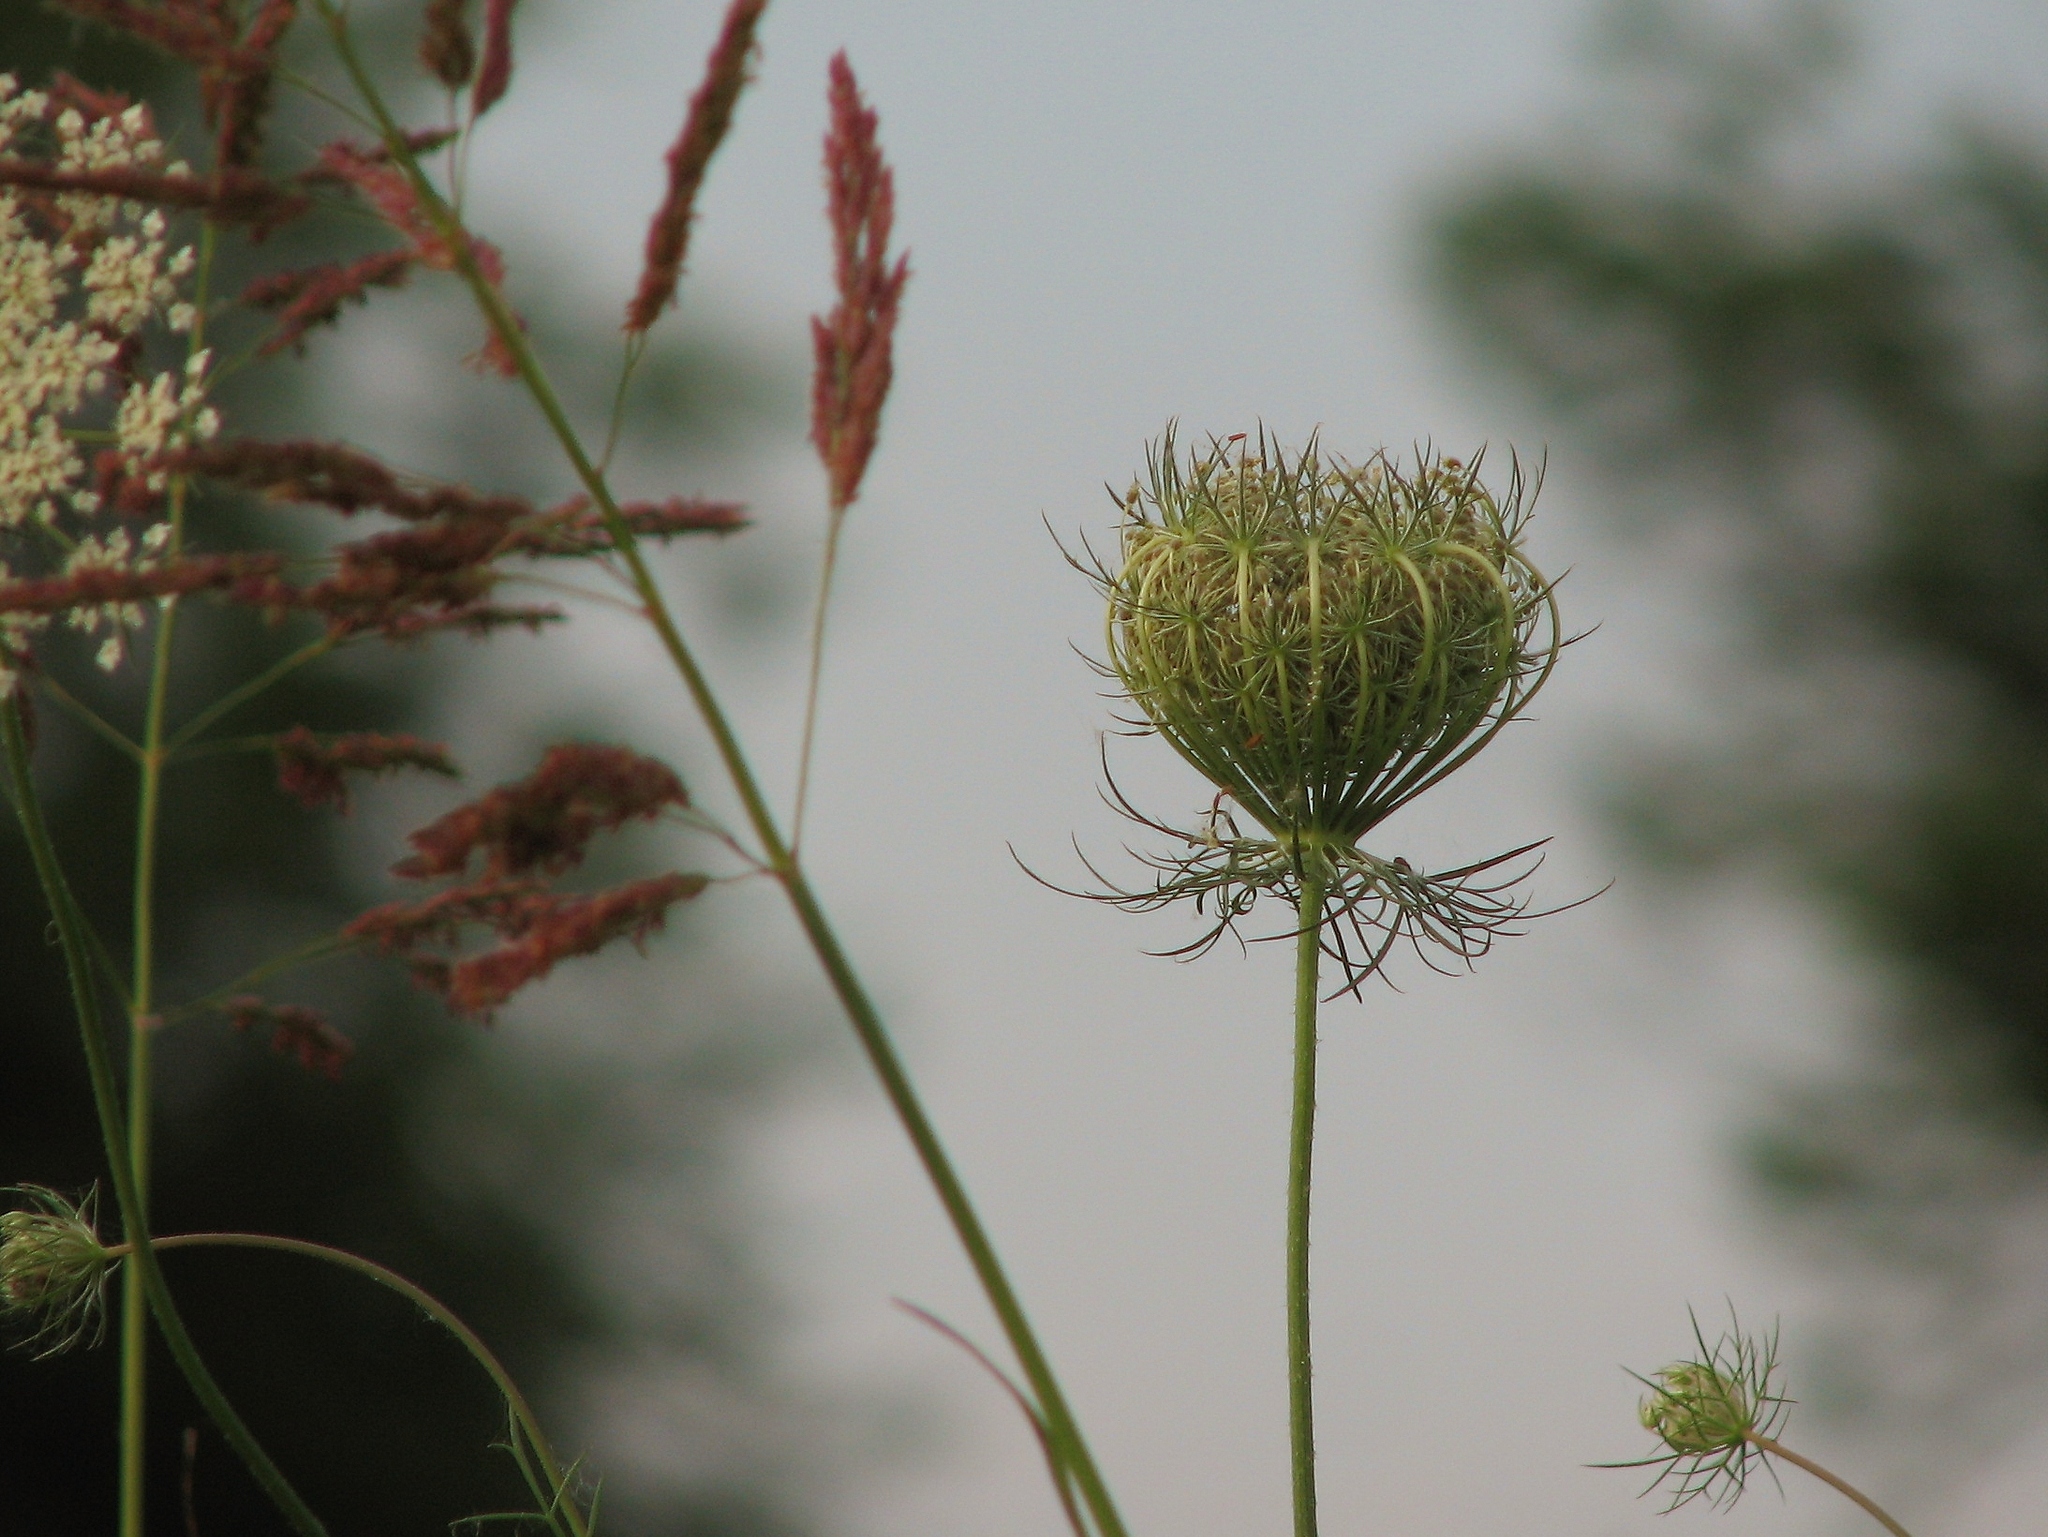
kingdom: Plantae
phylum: Tracheophyta
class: Magnoliopsida
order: Apiales
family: Apiaceae
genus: Daucus
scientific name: Daucus carota
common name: Wild carrot
